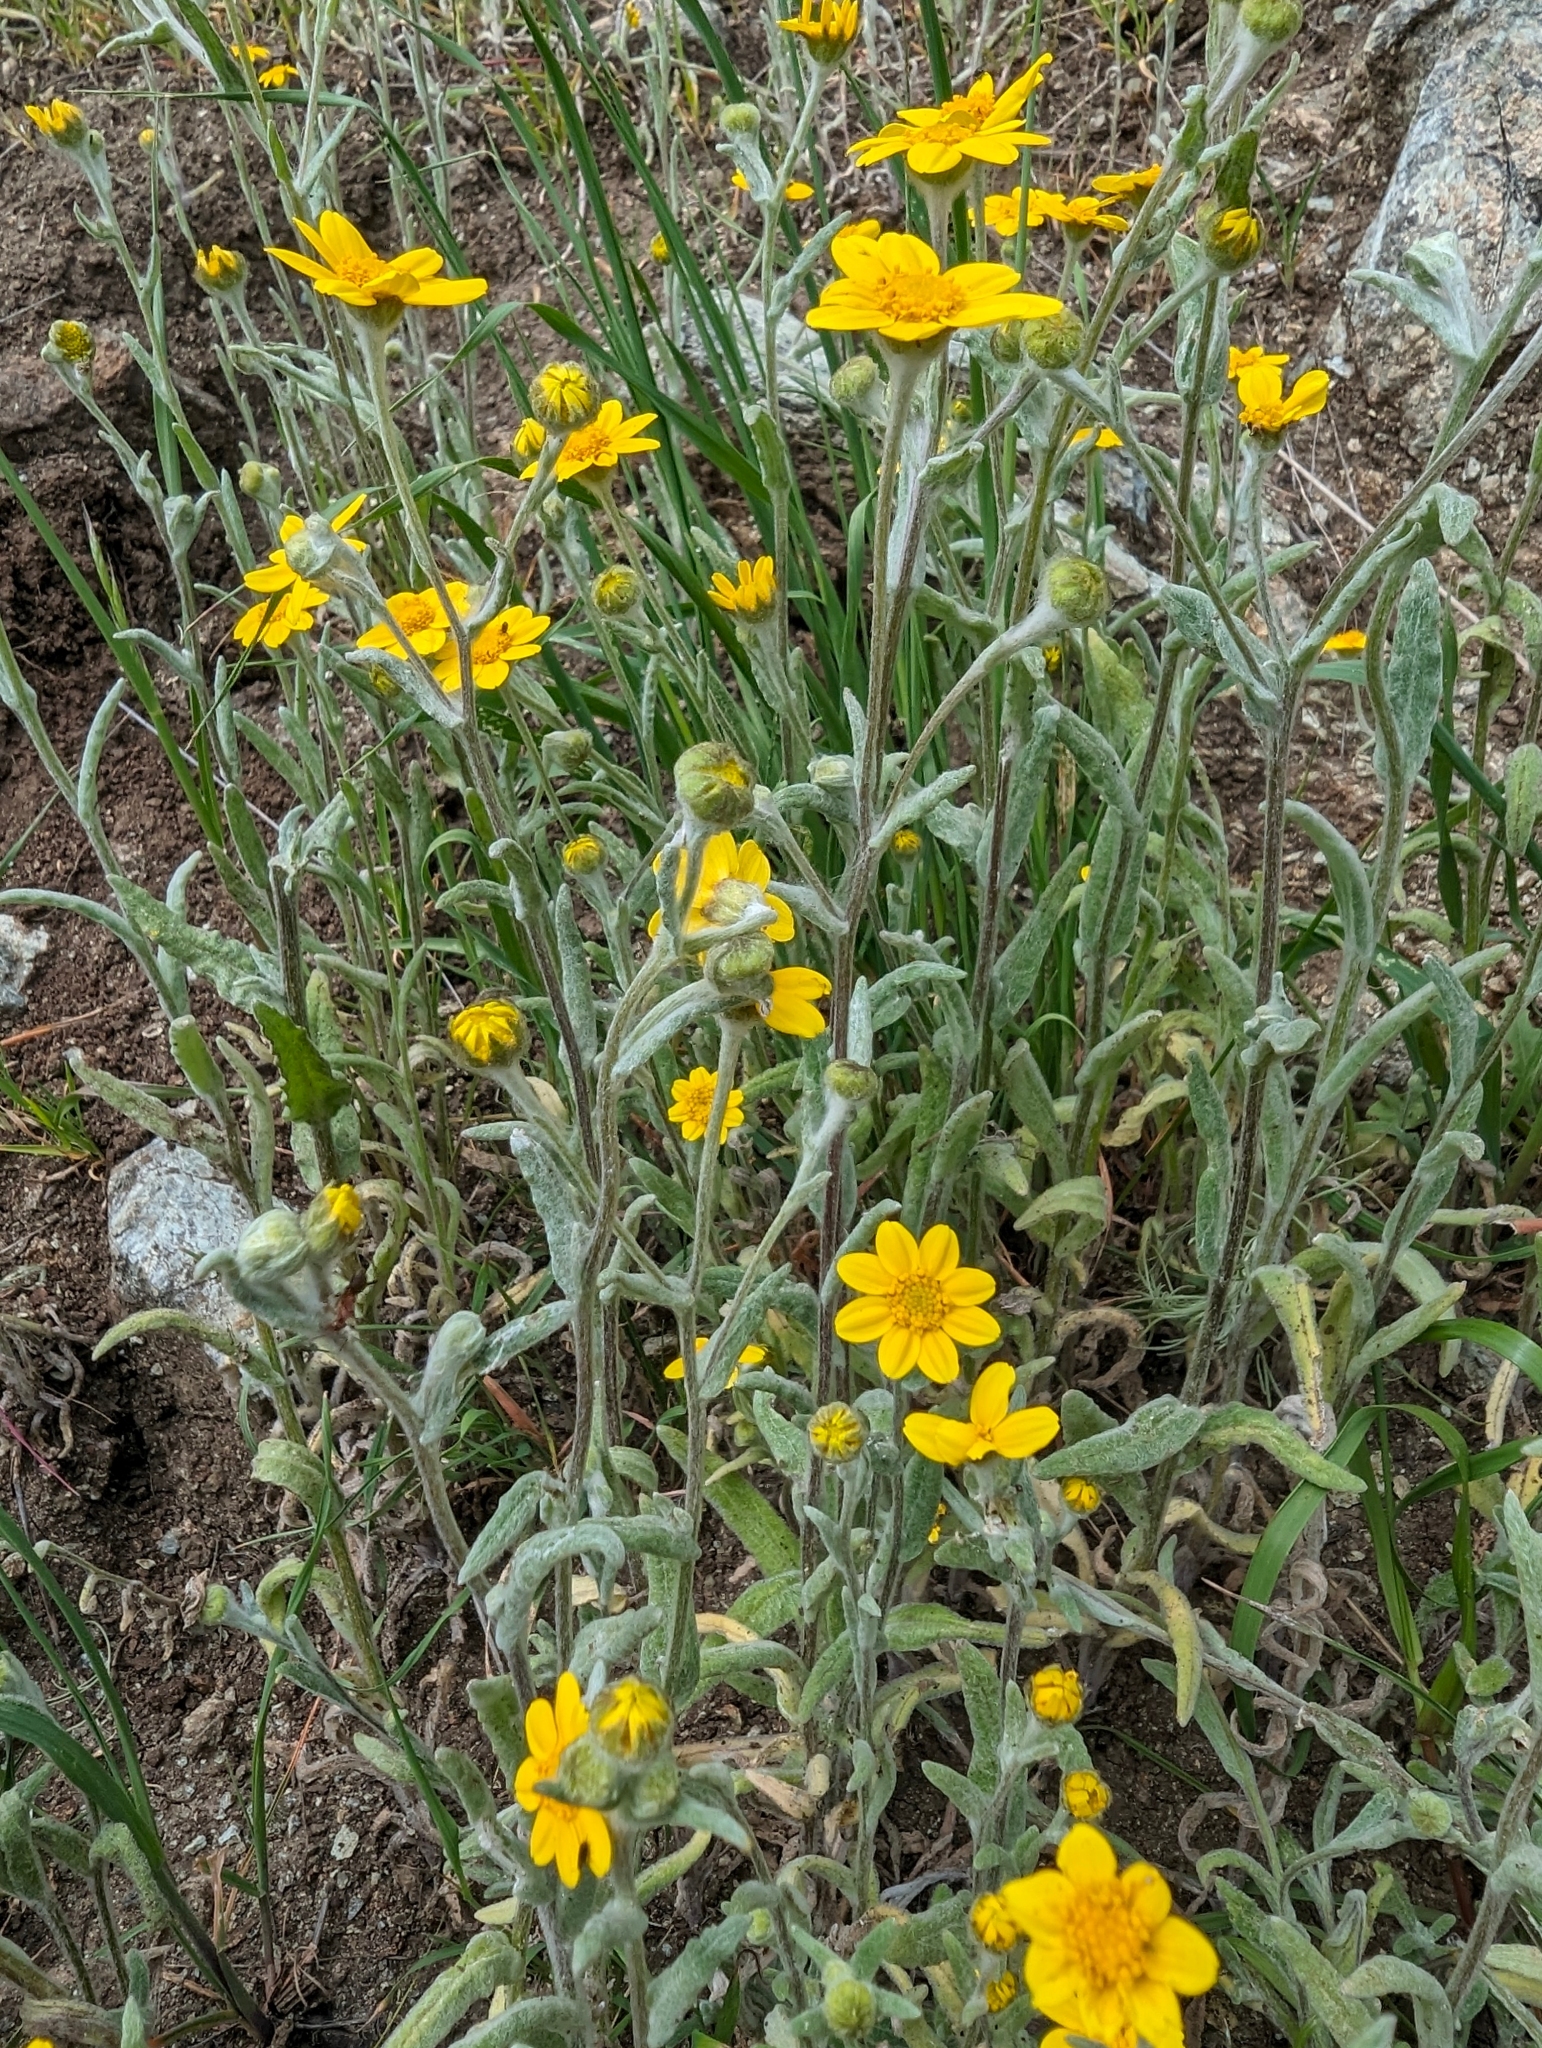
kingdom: Plantae
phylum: Tracheophyta
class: Magnoliopsida
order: Asterales
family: Asteraceae
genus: Monolopia
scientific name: Monolopia gracilens
